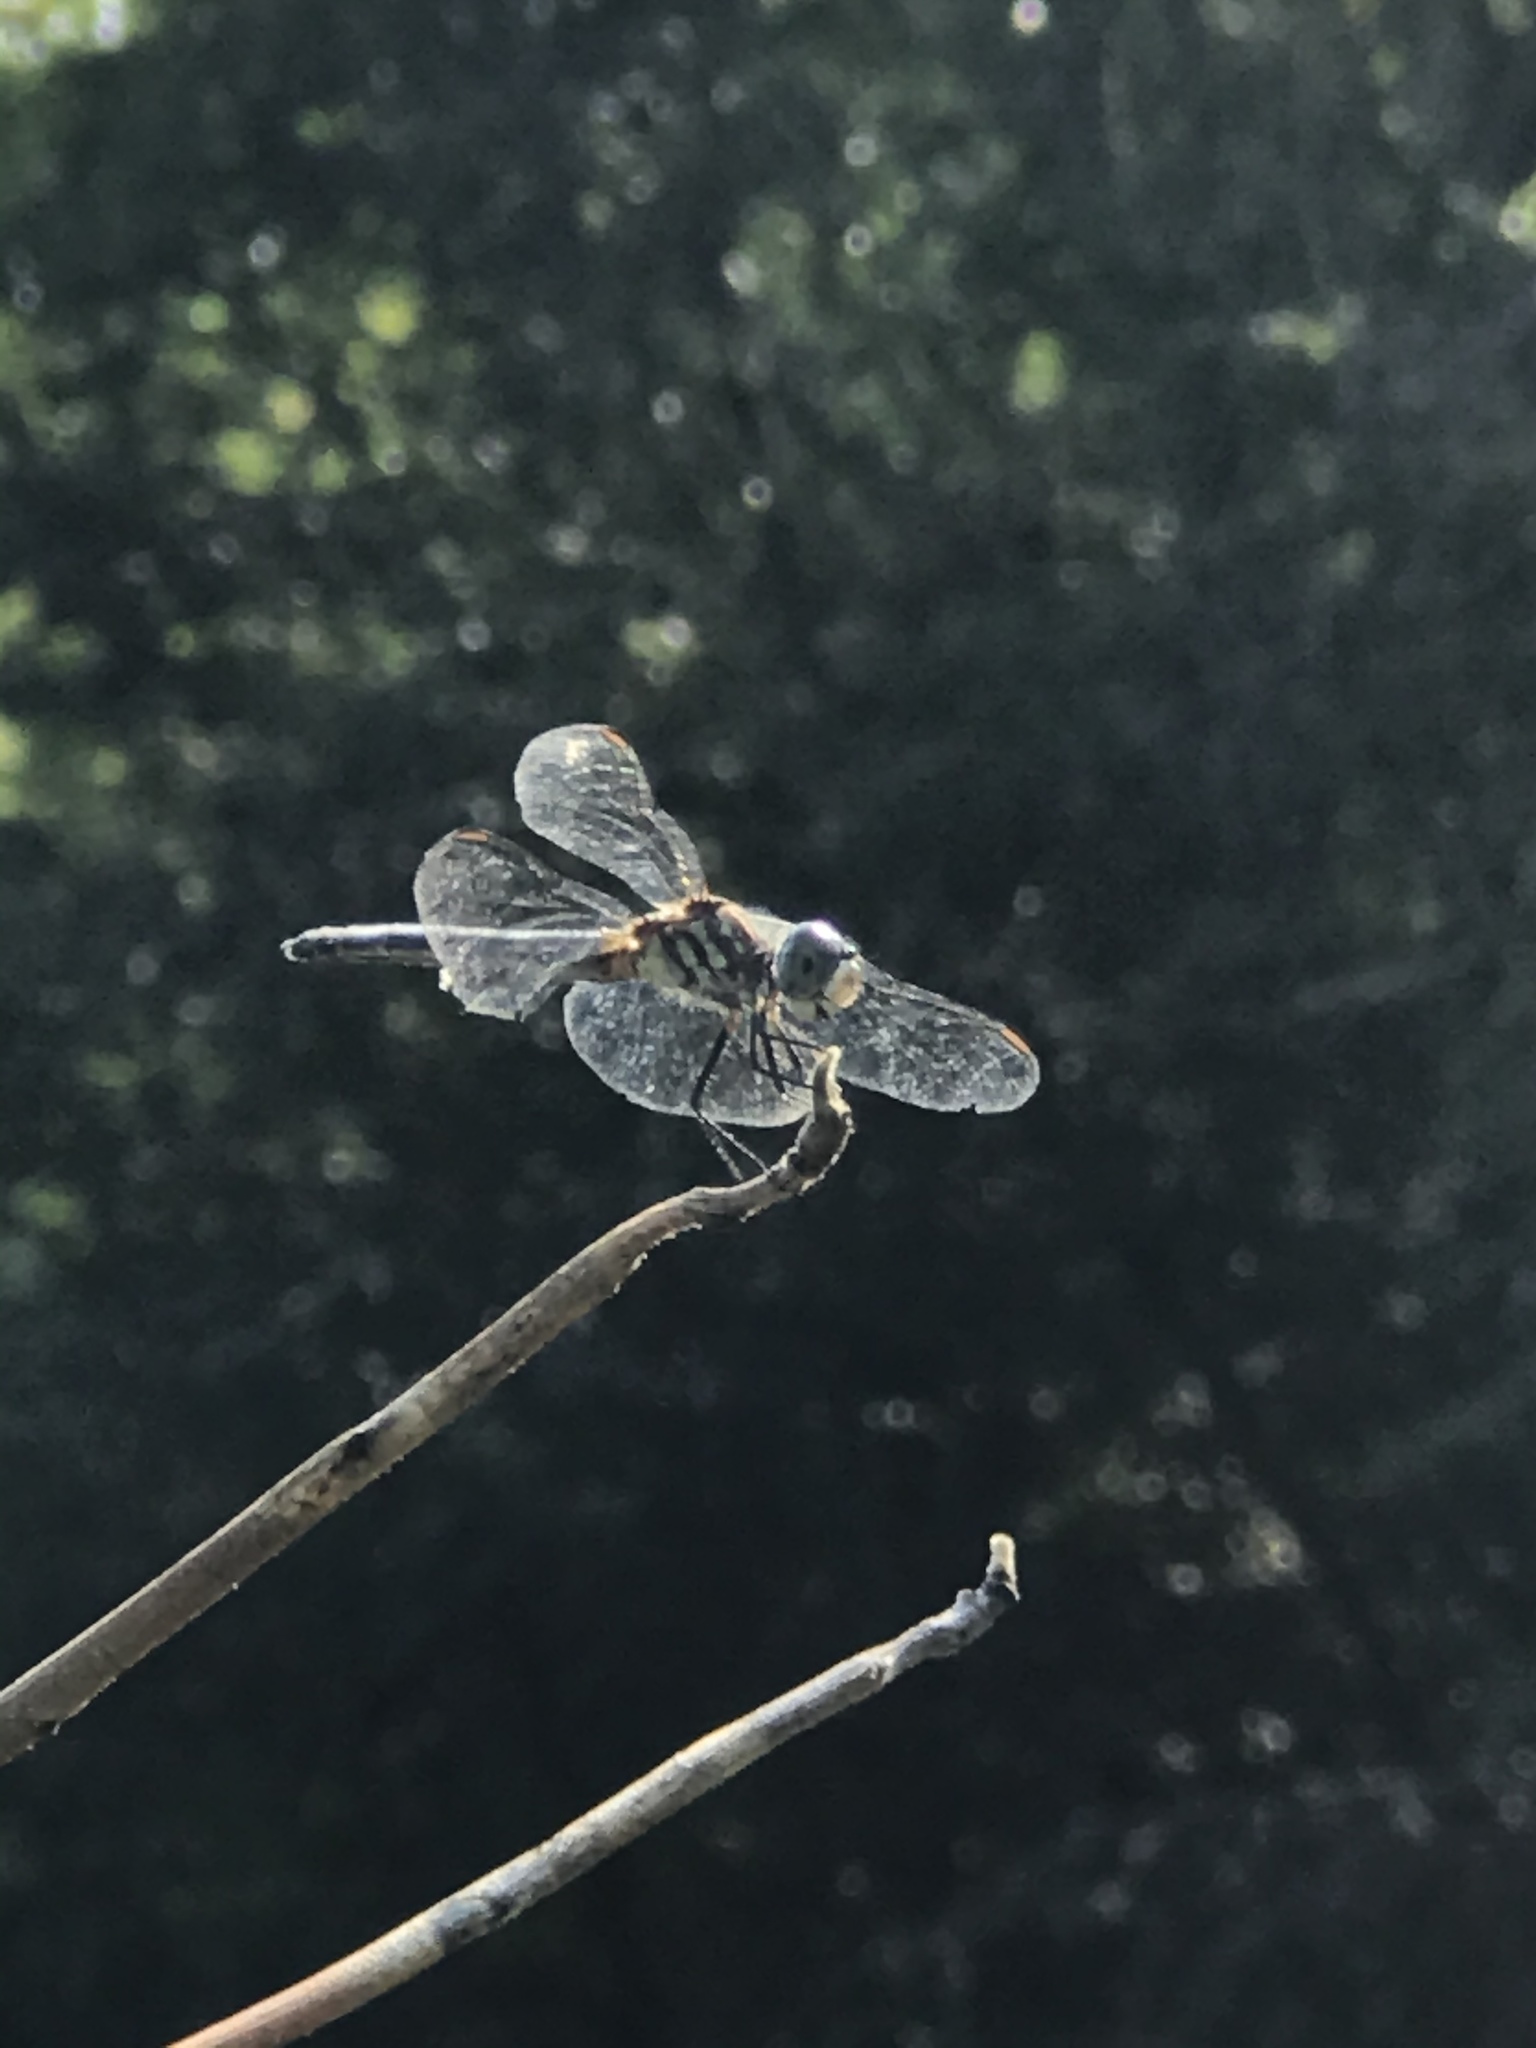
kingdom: Animalia
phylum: Arthropoda
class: Insecta
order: Odonata
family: Libellulidae
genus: Pachydiplax
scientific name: Pachydiplax longipennis
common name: Blue dasher
